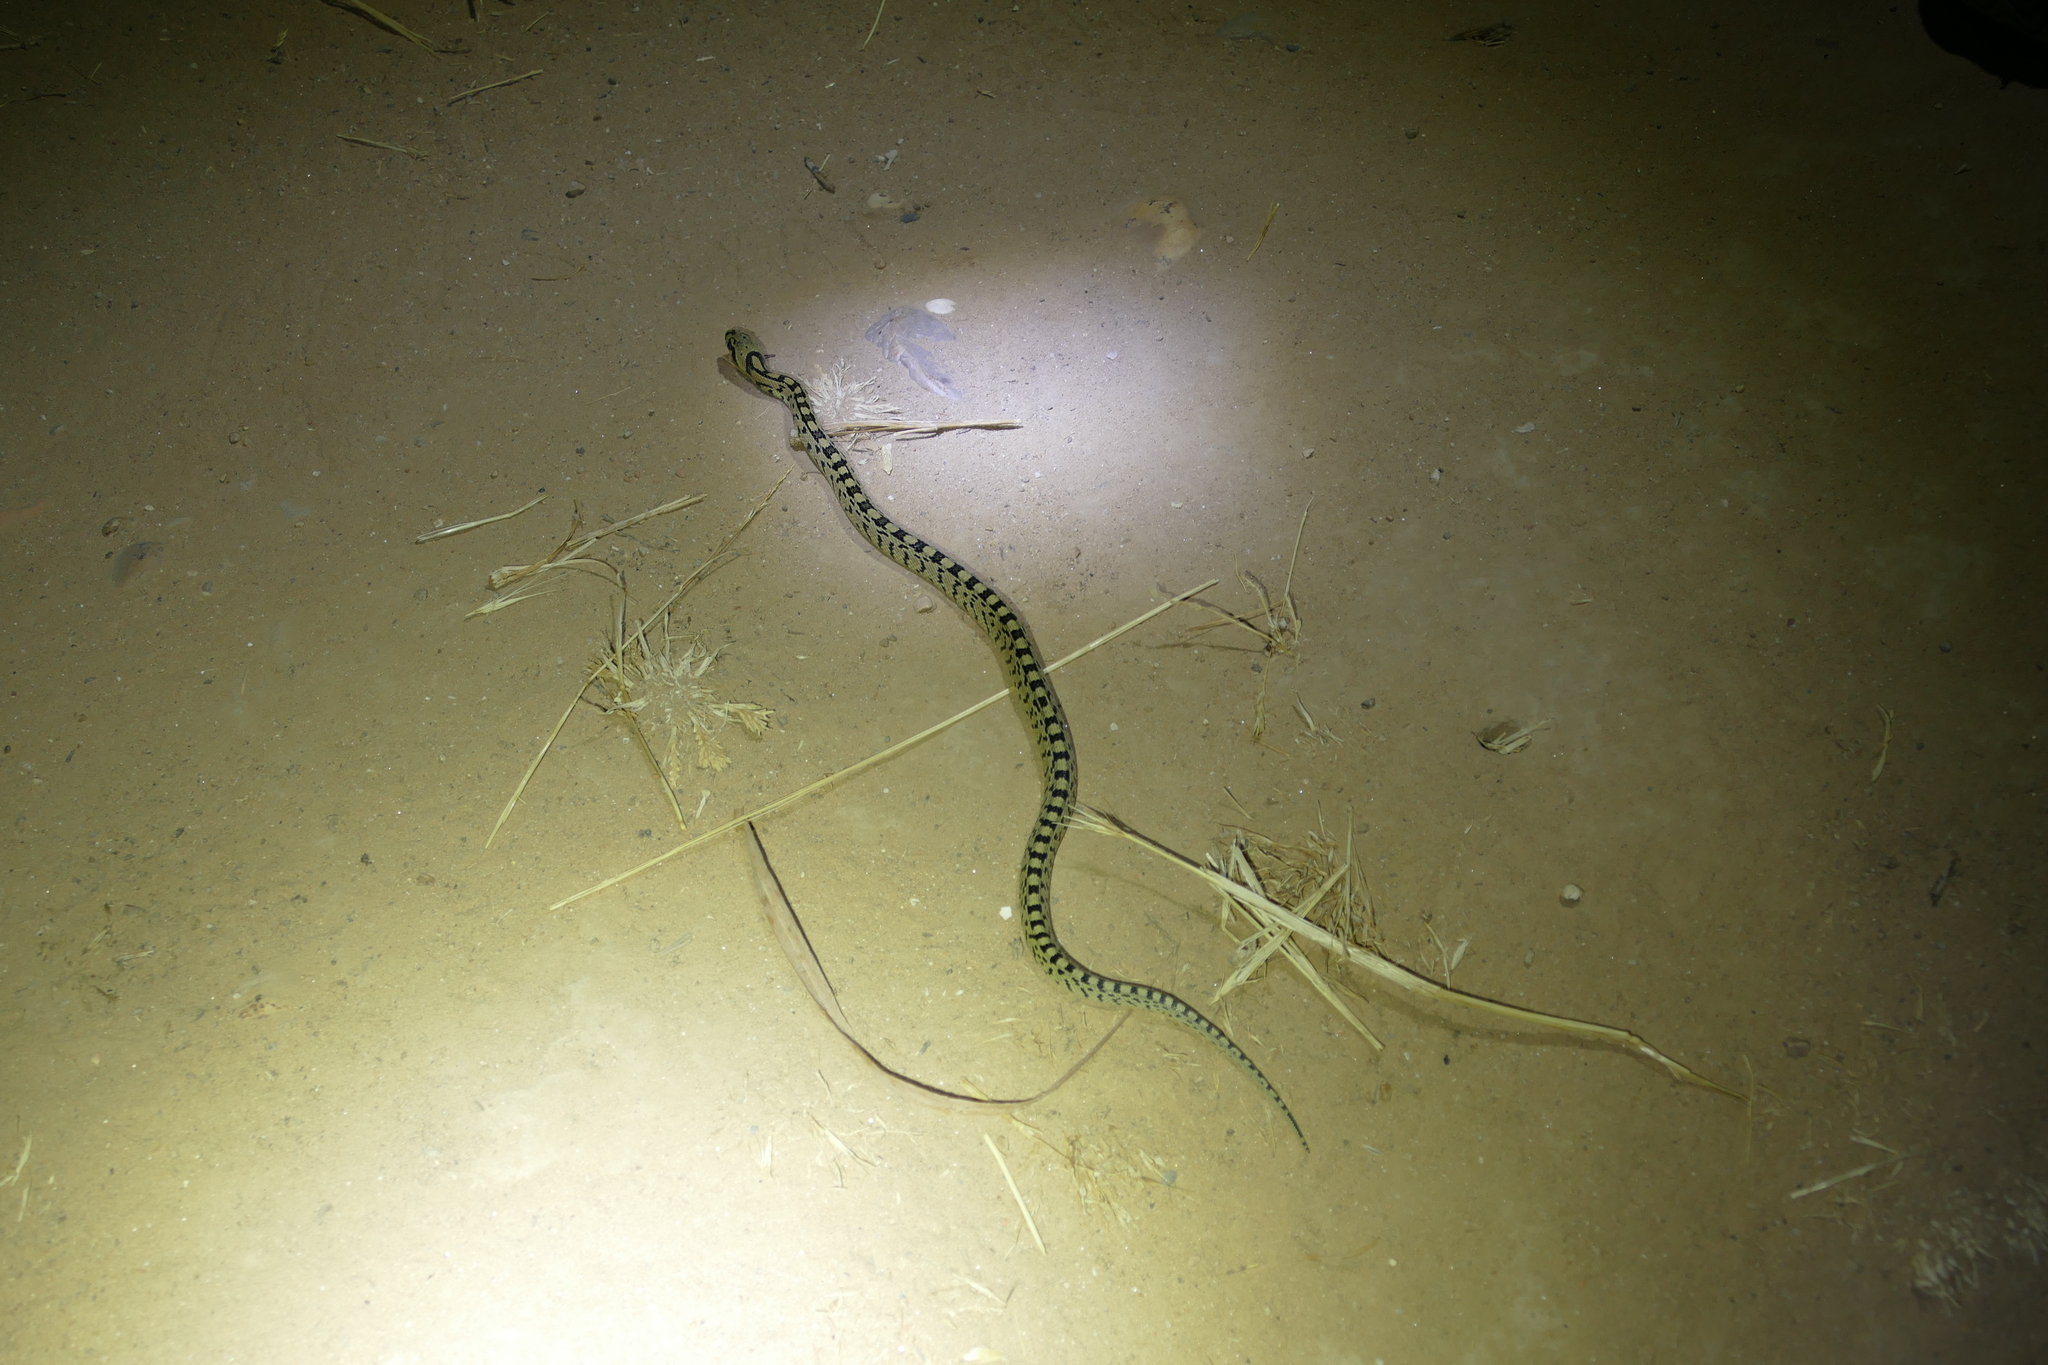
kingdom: Animalia
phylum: Chordata
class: Squamata
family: Colubridae
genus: Zamenis
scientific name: Zamenis scalaris
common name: Ladder snakes
